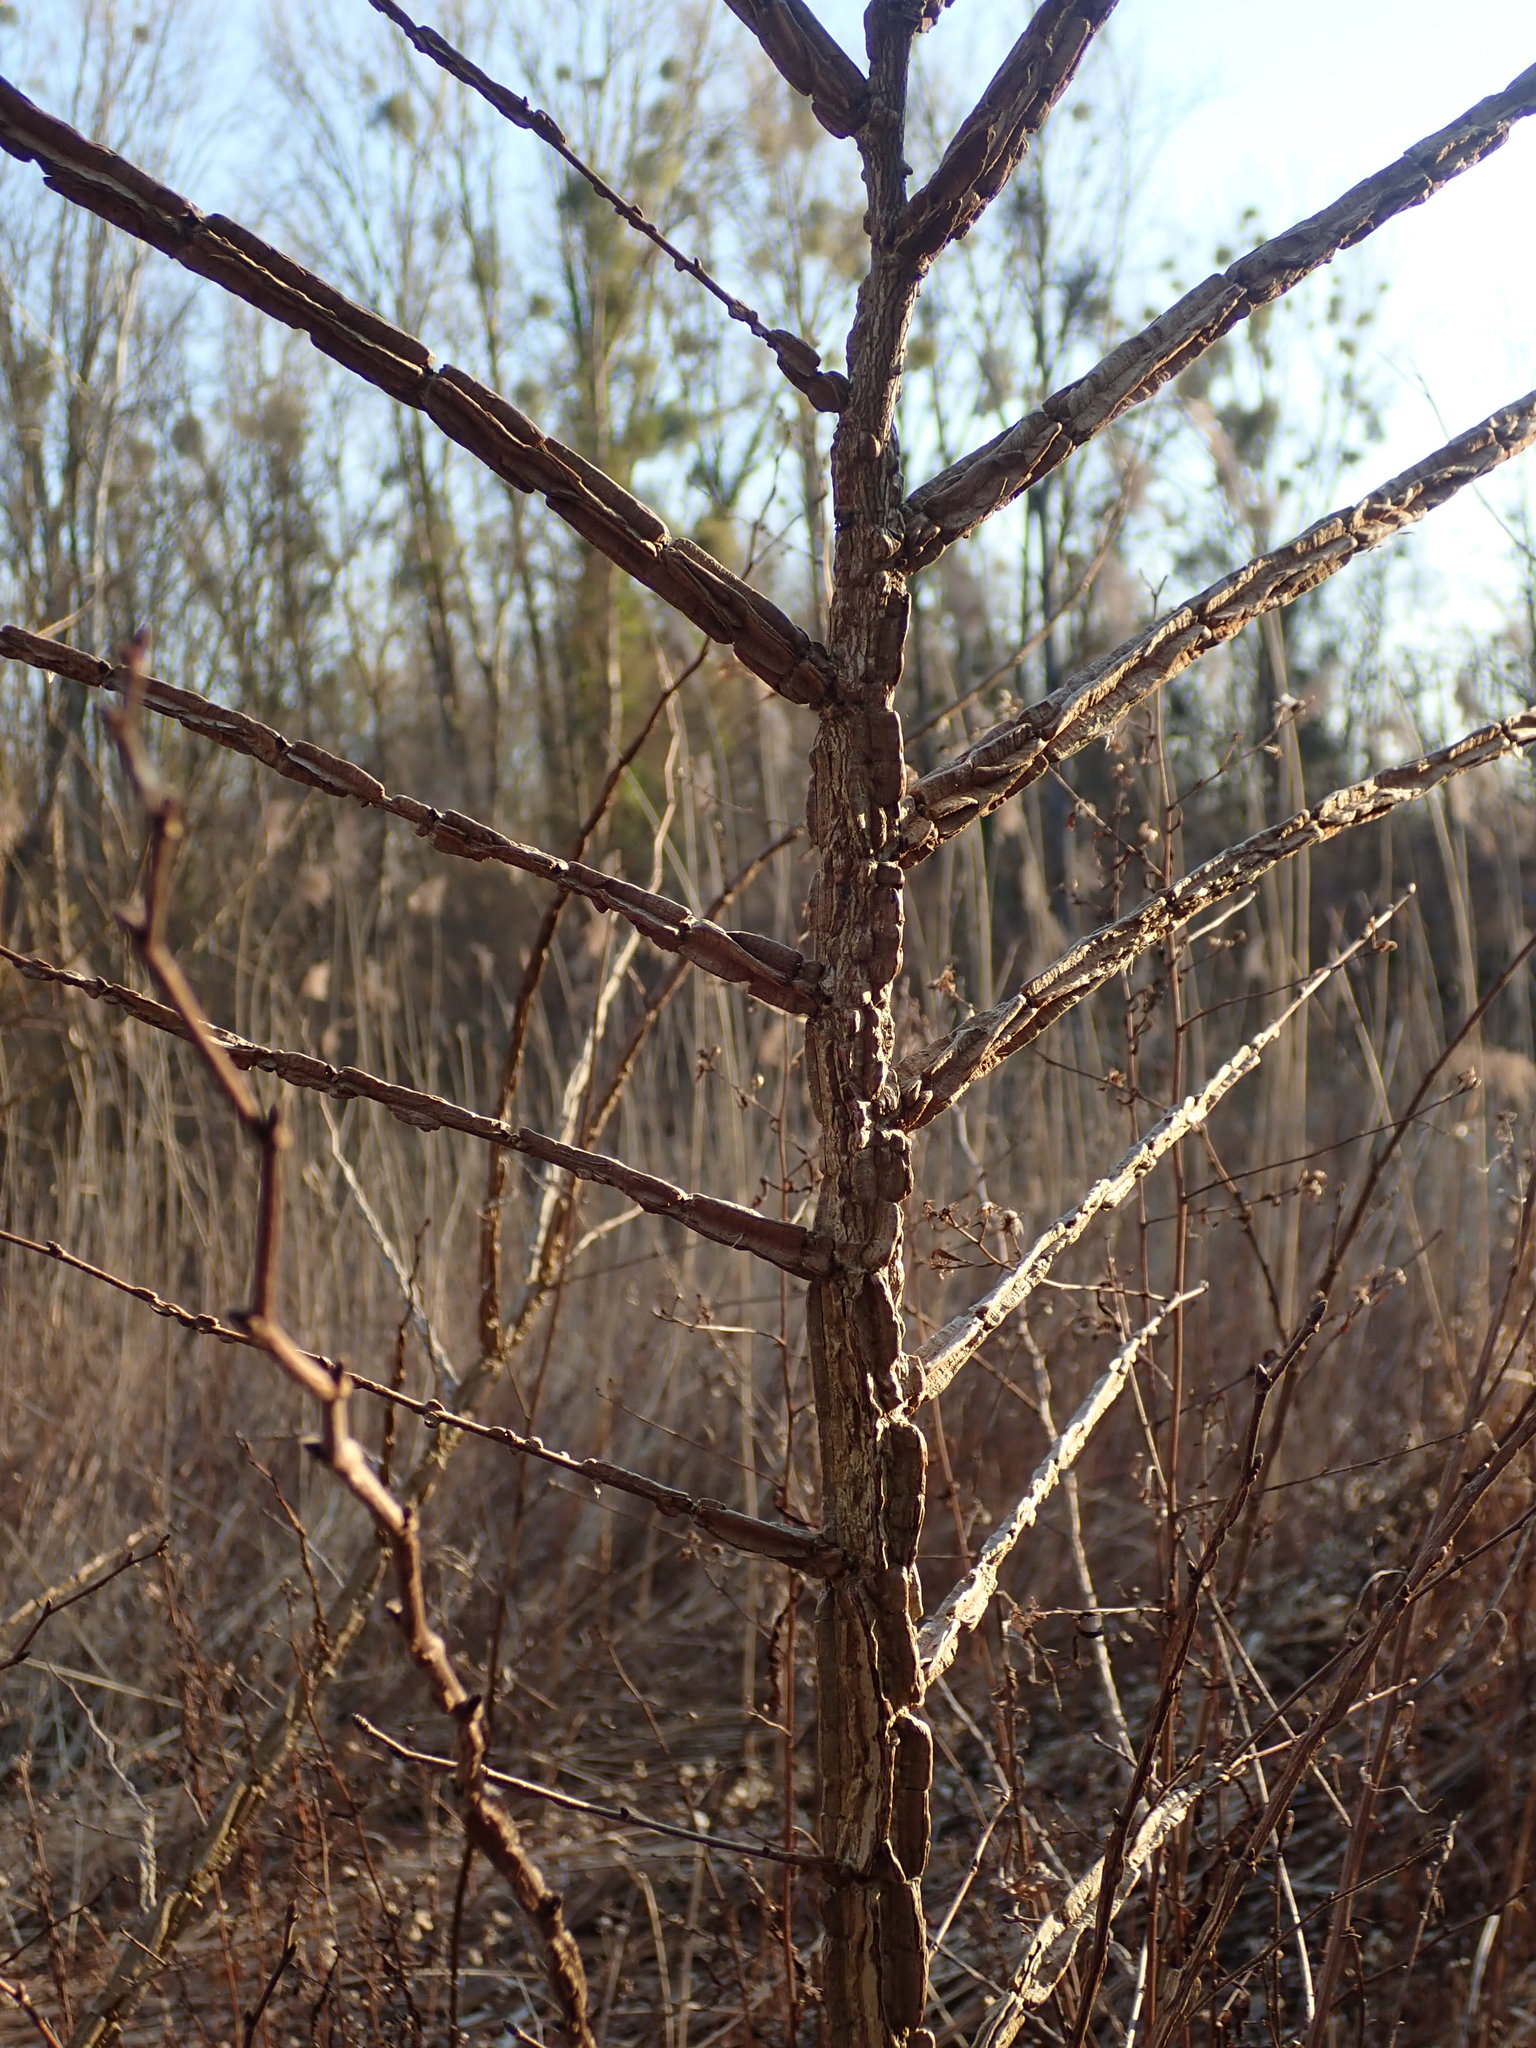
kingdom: Plantae
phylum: Tracheophyta
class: Magnoliopsida
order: Rosales
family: Ulmaceae
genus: Ulmus
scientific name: Ulmus minor
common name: Small-leaved elm
